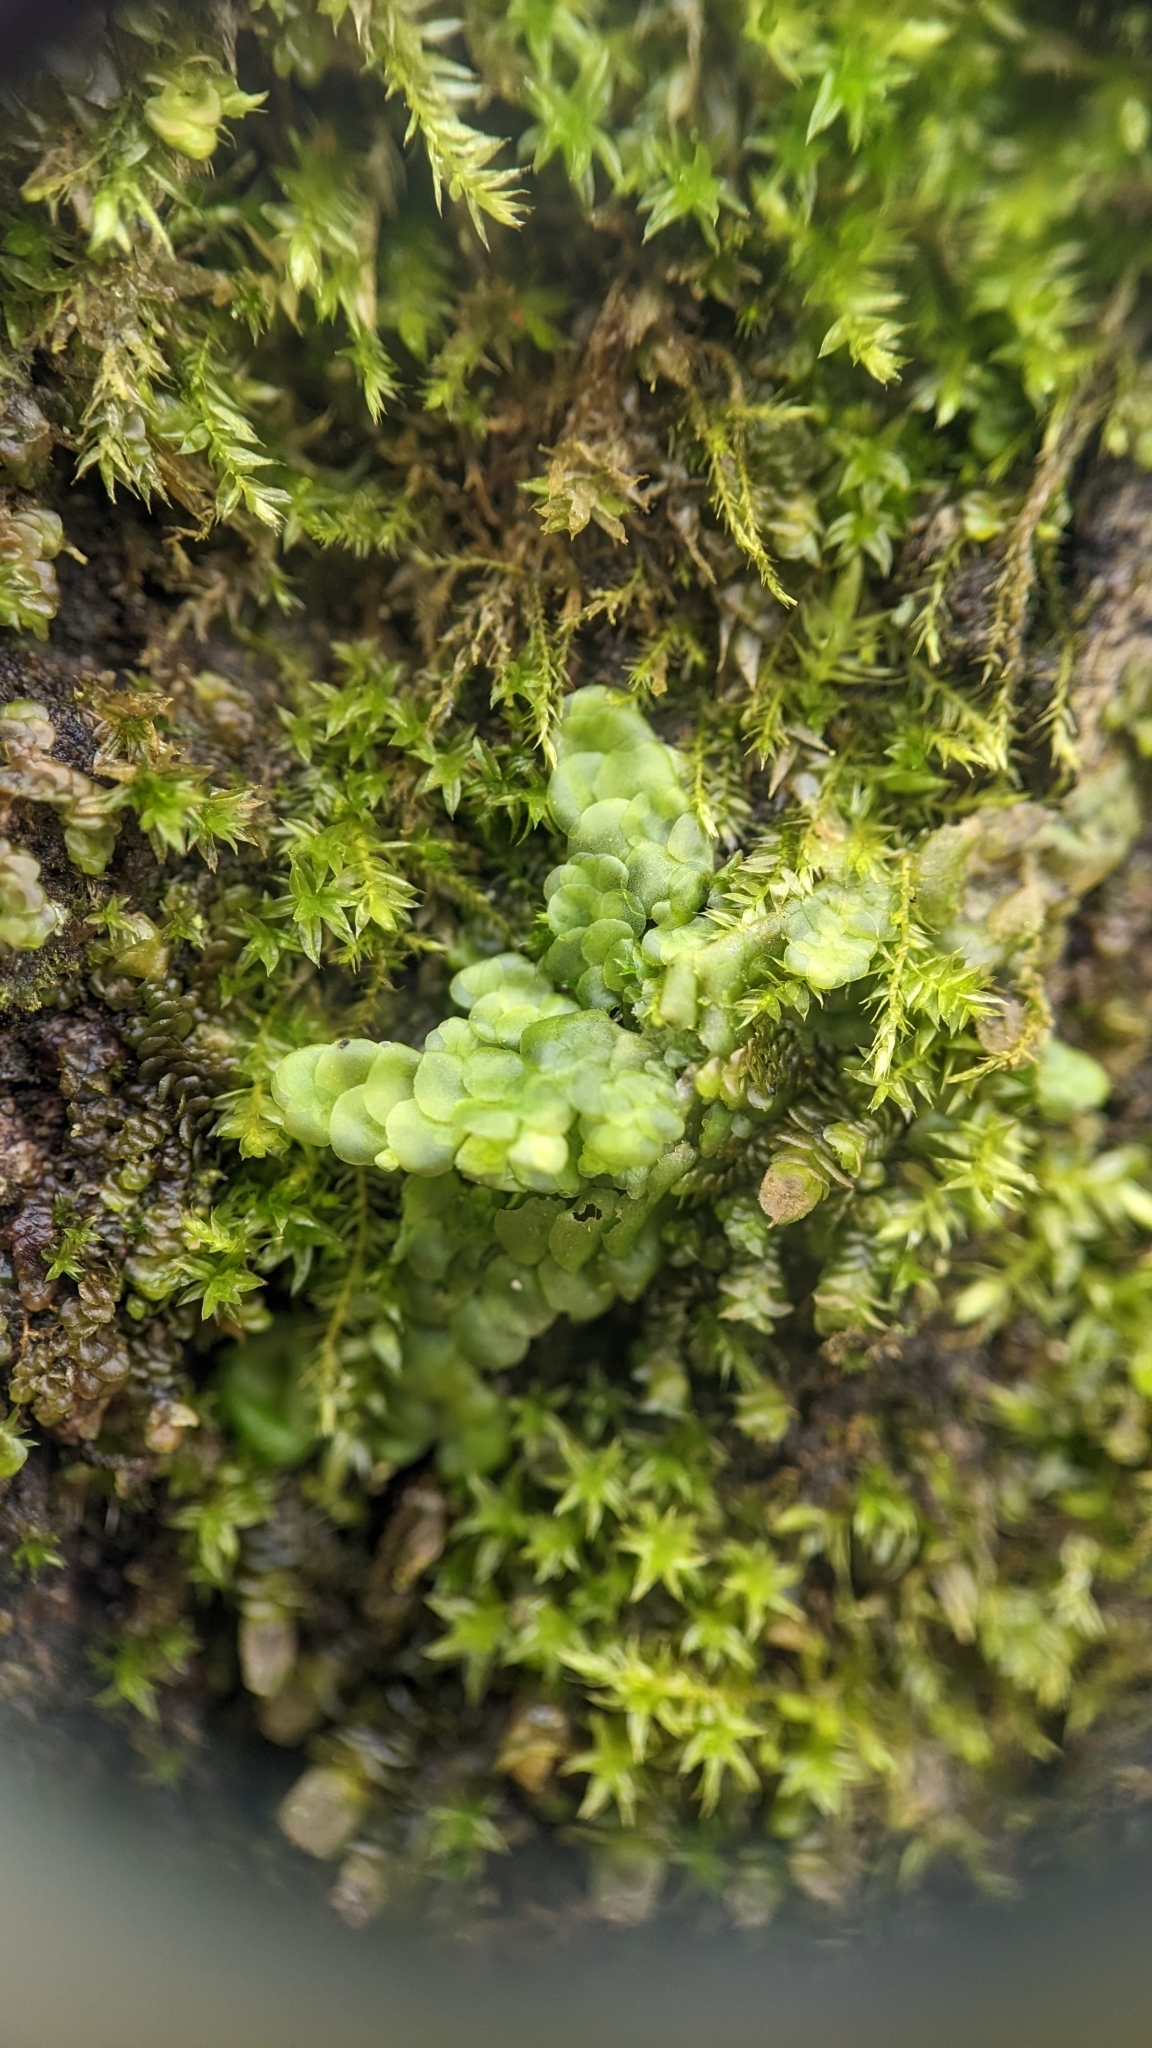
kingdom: Plantae
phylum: Marchantiophyta
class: Jungermanniopsida
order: Porellales
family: Radulaceae
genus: Radula
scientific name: Radula complanata
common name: Flat-leaved scalewort
